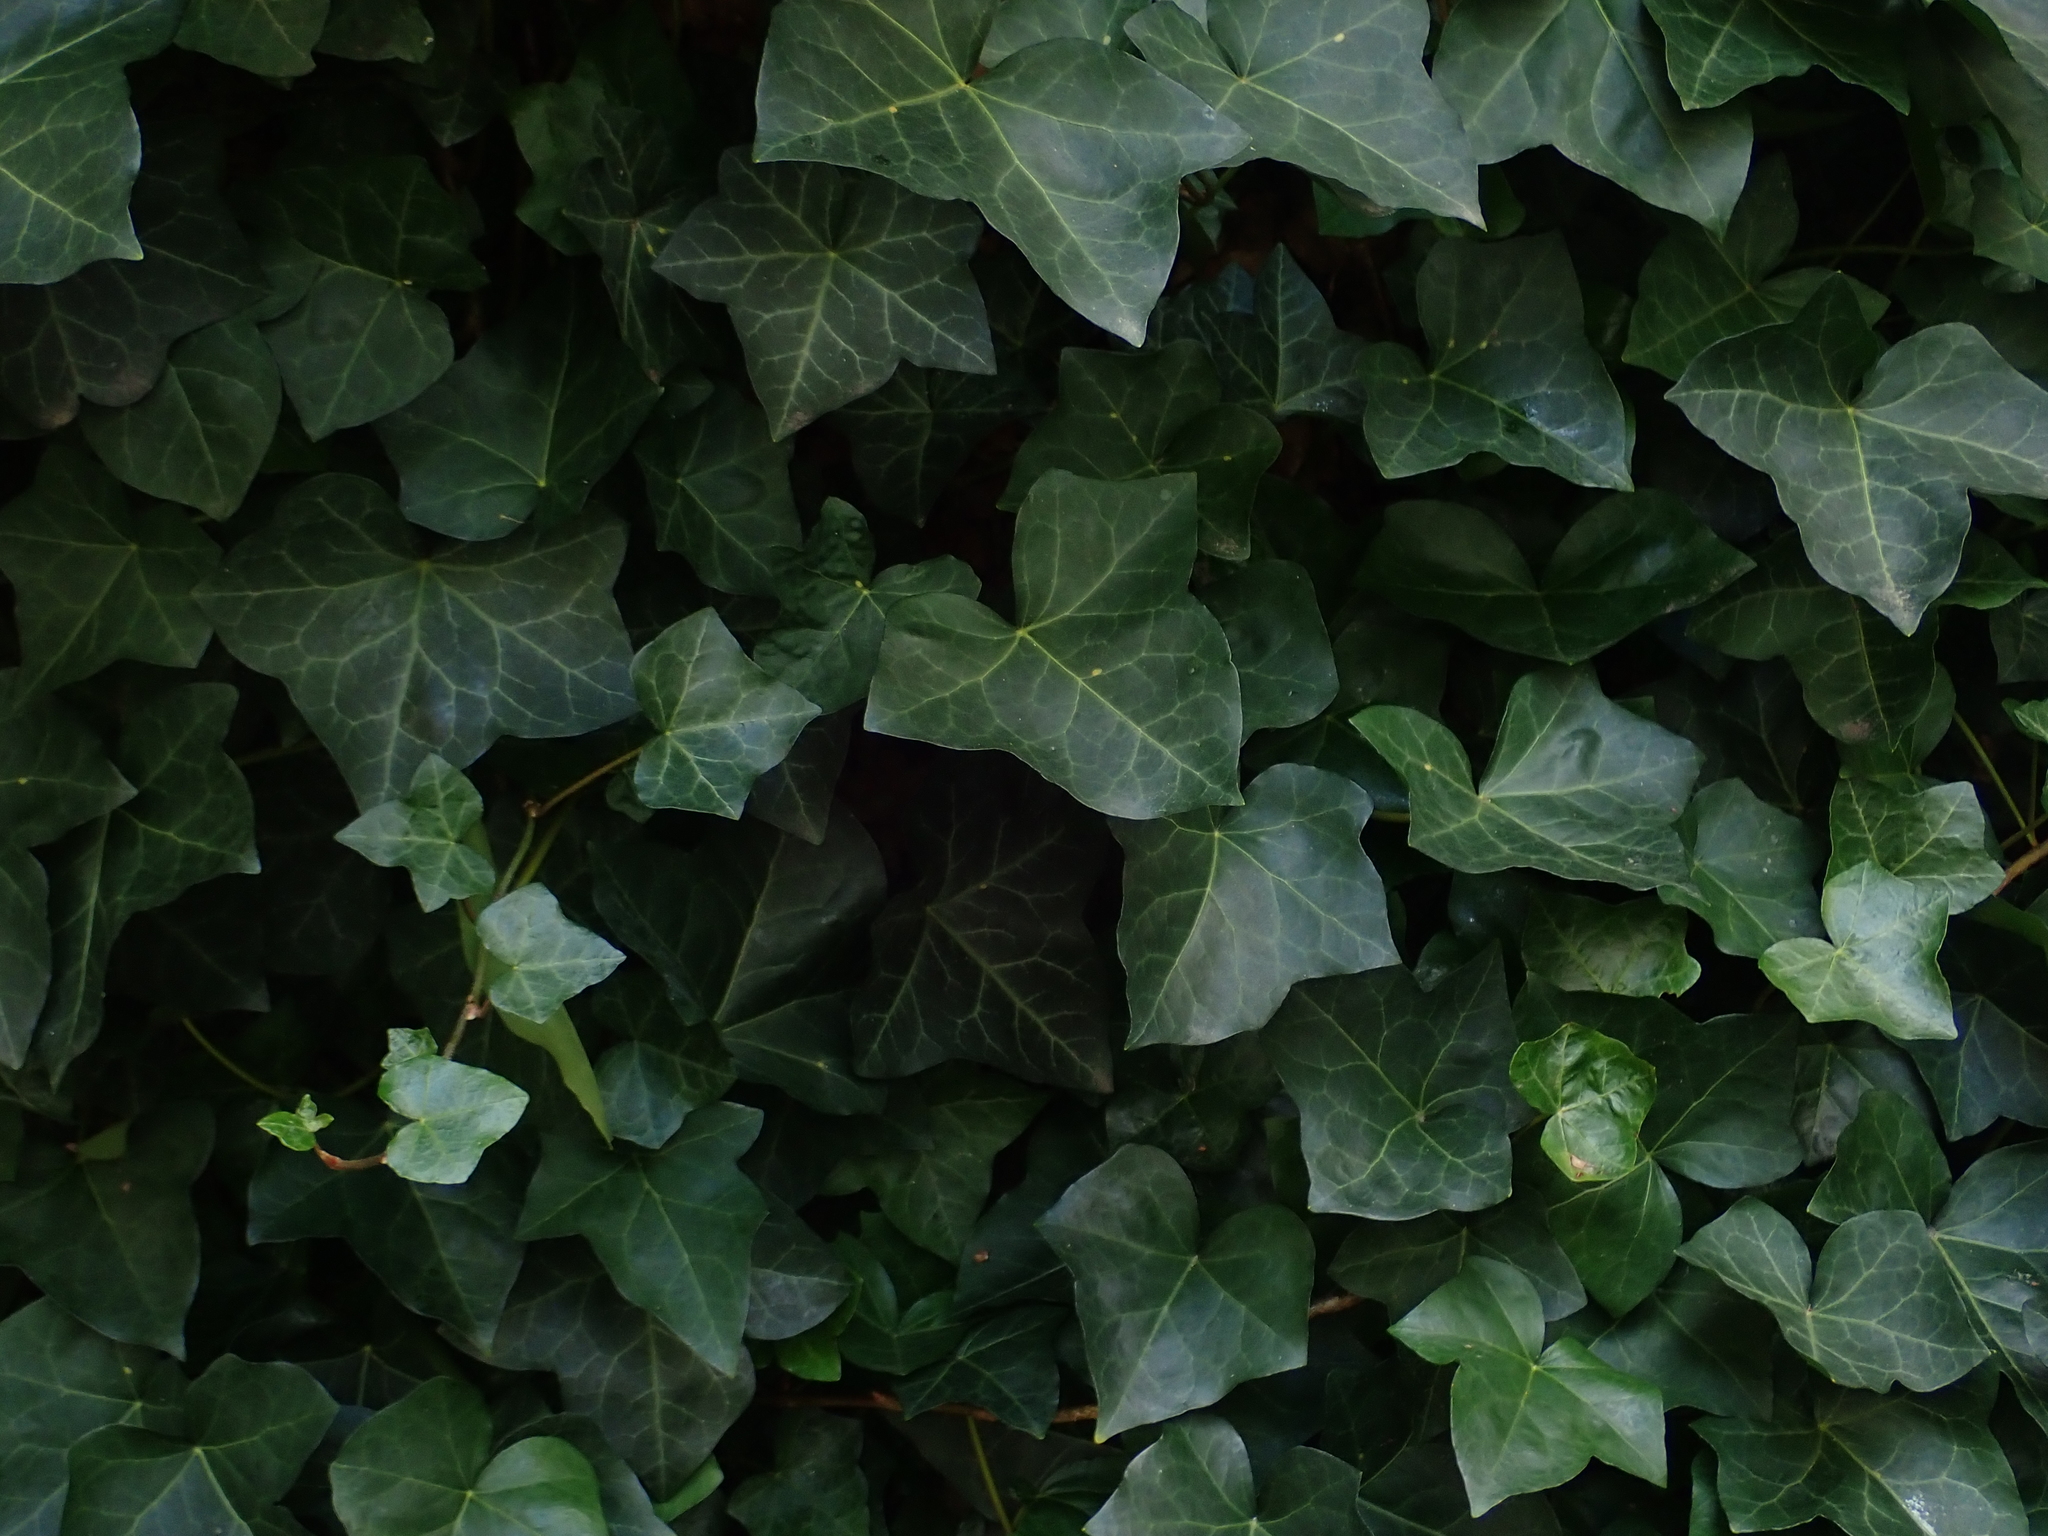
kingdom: Plantae
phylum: Tracheophyta
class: Magnoliopsida
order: Apiales
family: Araliaceae
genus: Hedera
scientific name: Hedera helix
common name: Ivy
